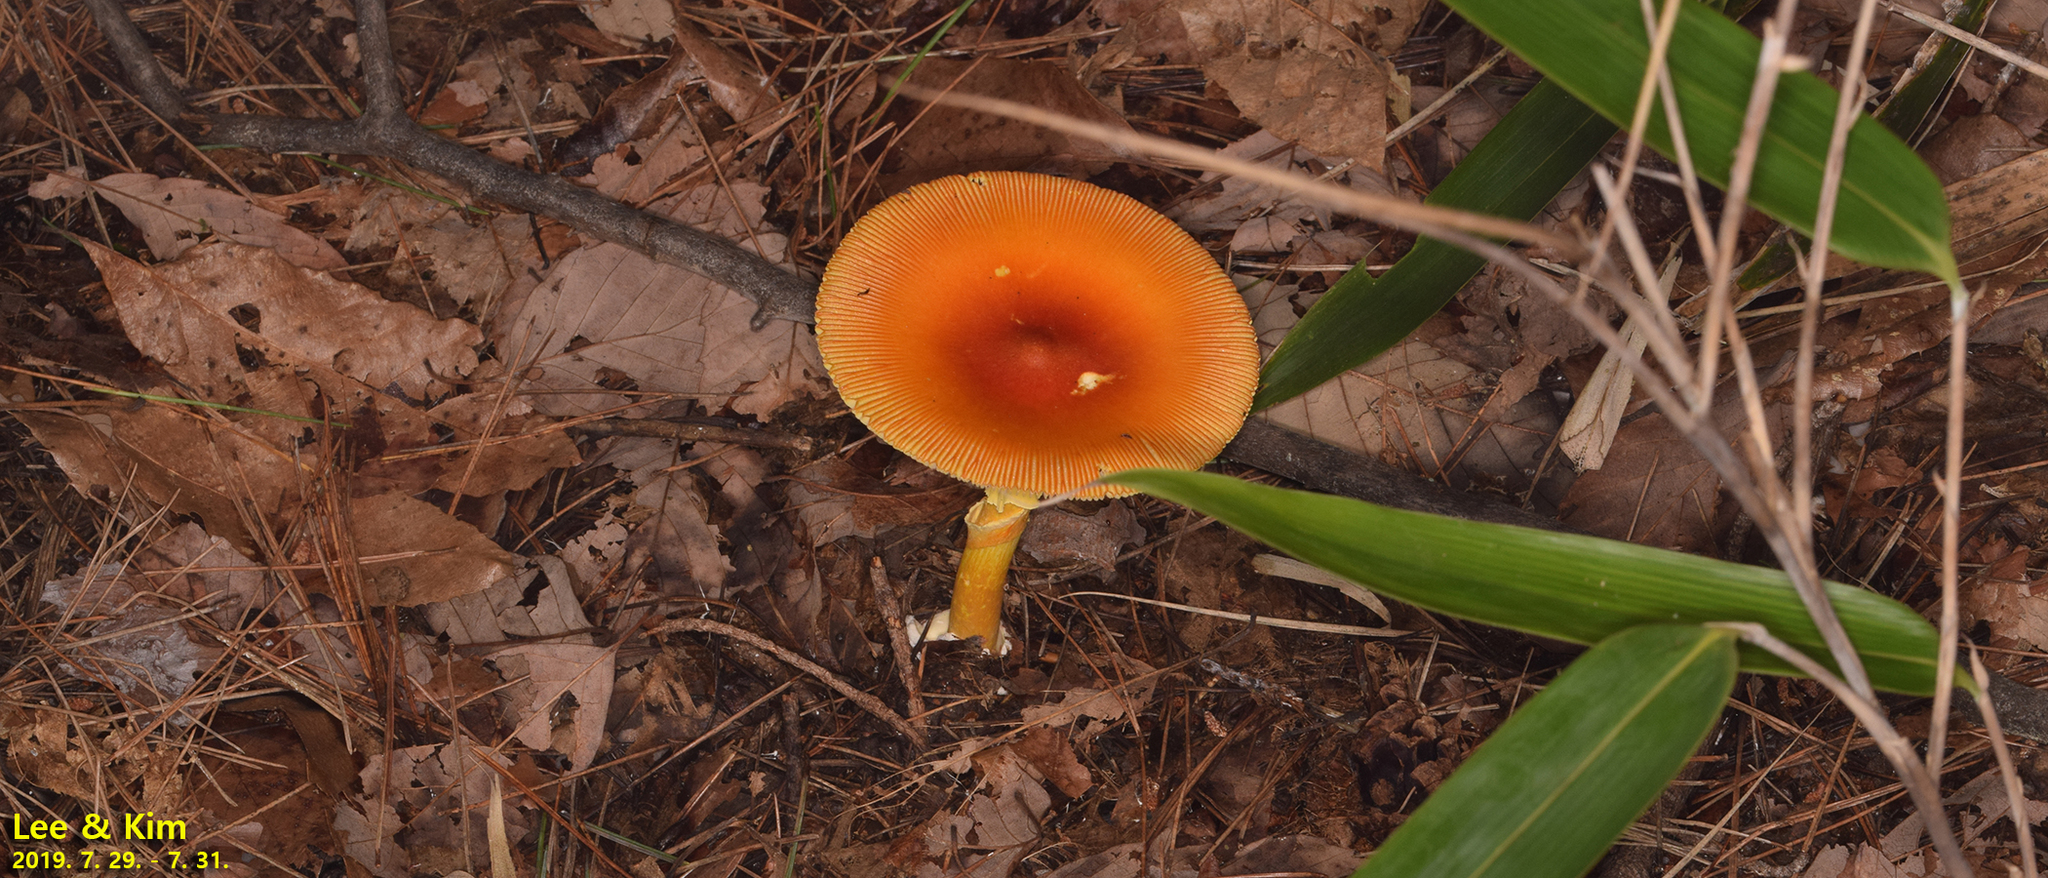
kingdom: Fungi
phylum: Basidiomycota
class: Agaricomycetes
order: Agaricales
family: Amanitaceae
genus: Amanita
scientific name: Amanita hemibapha
